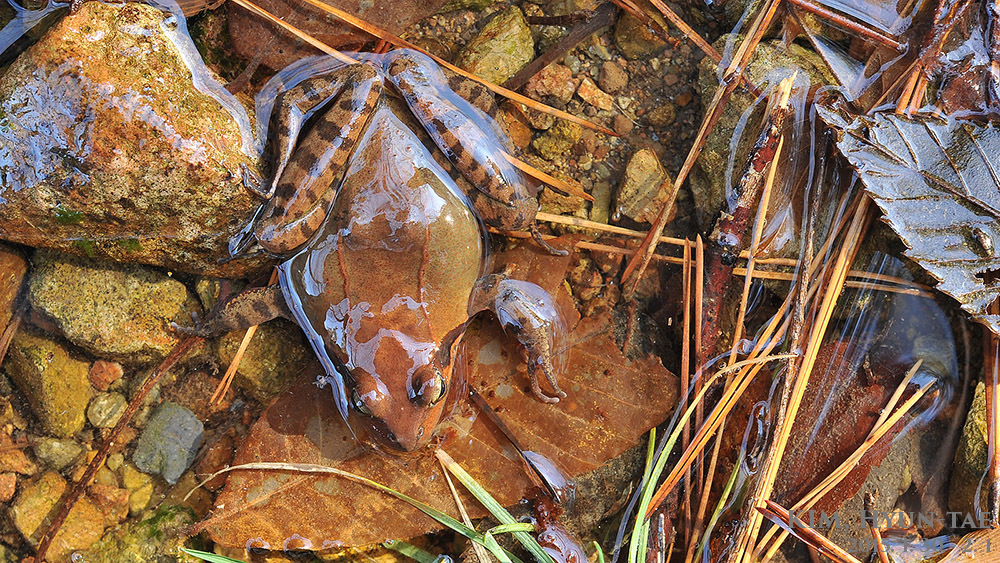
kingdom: Animalia
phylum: Chordata
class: Amphibia
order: Anura
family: Ranidae
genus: Rana
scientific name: Rana uenoi
